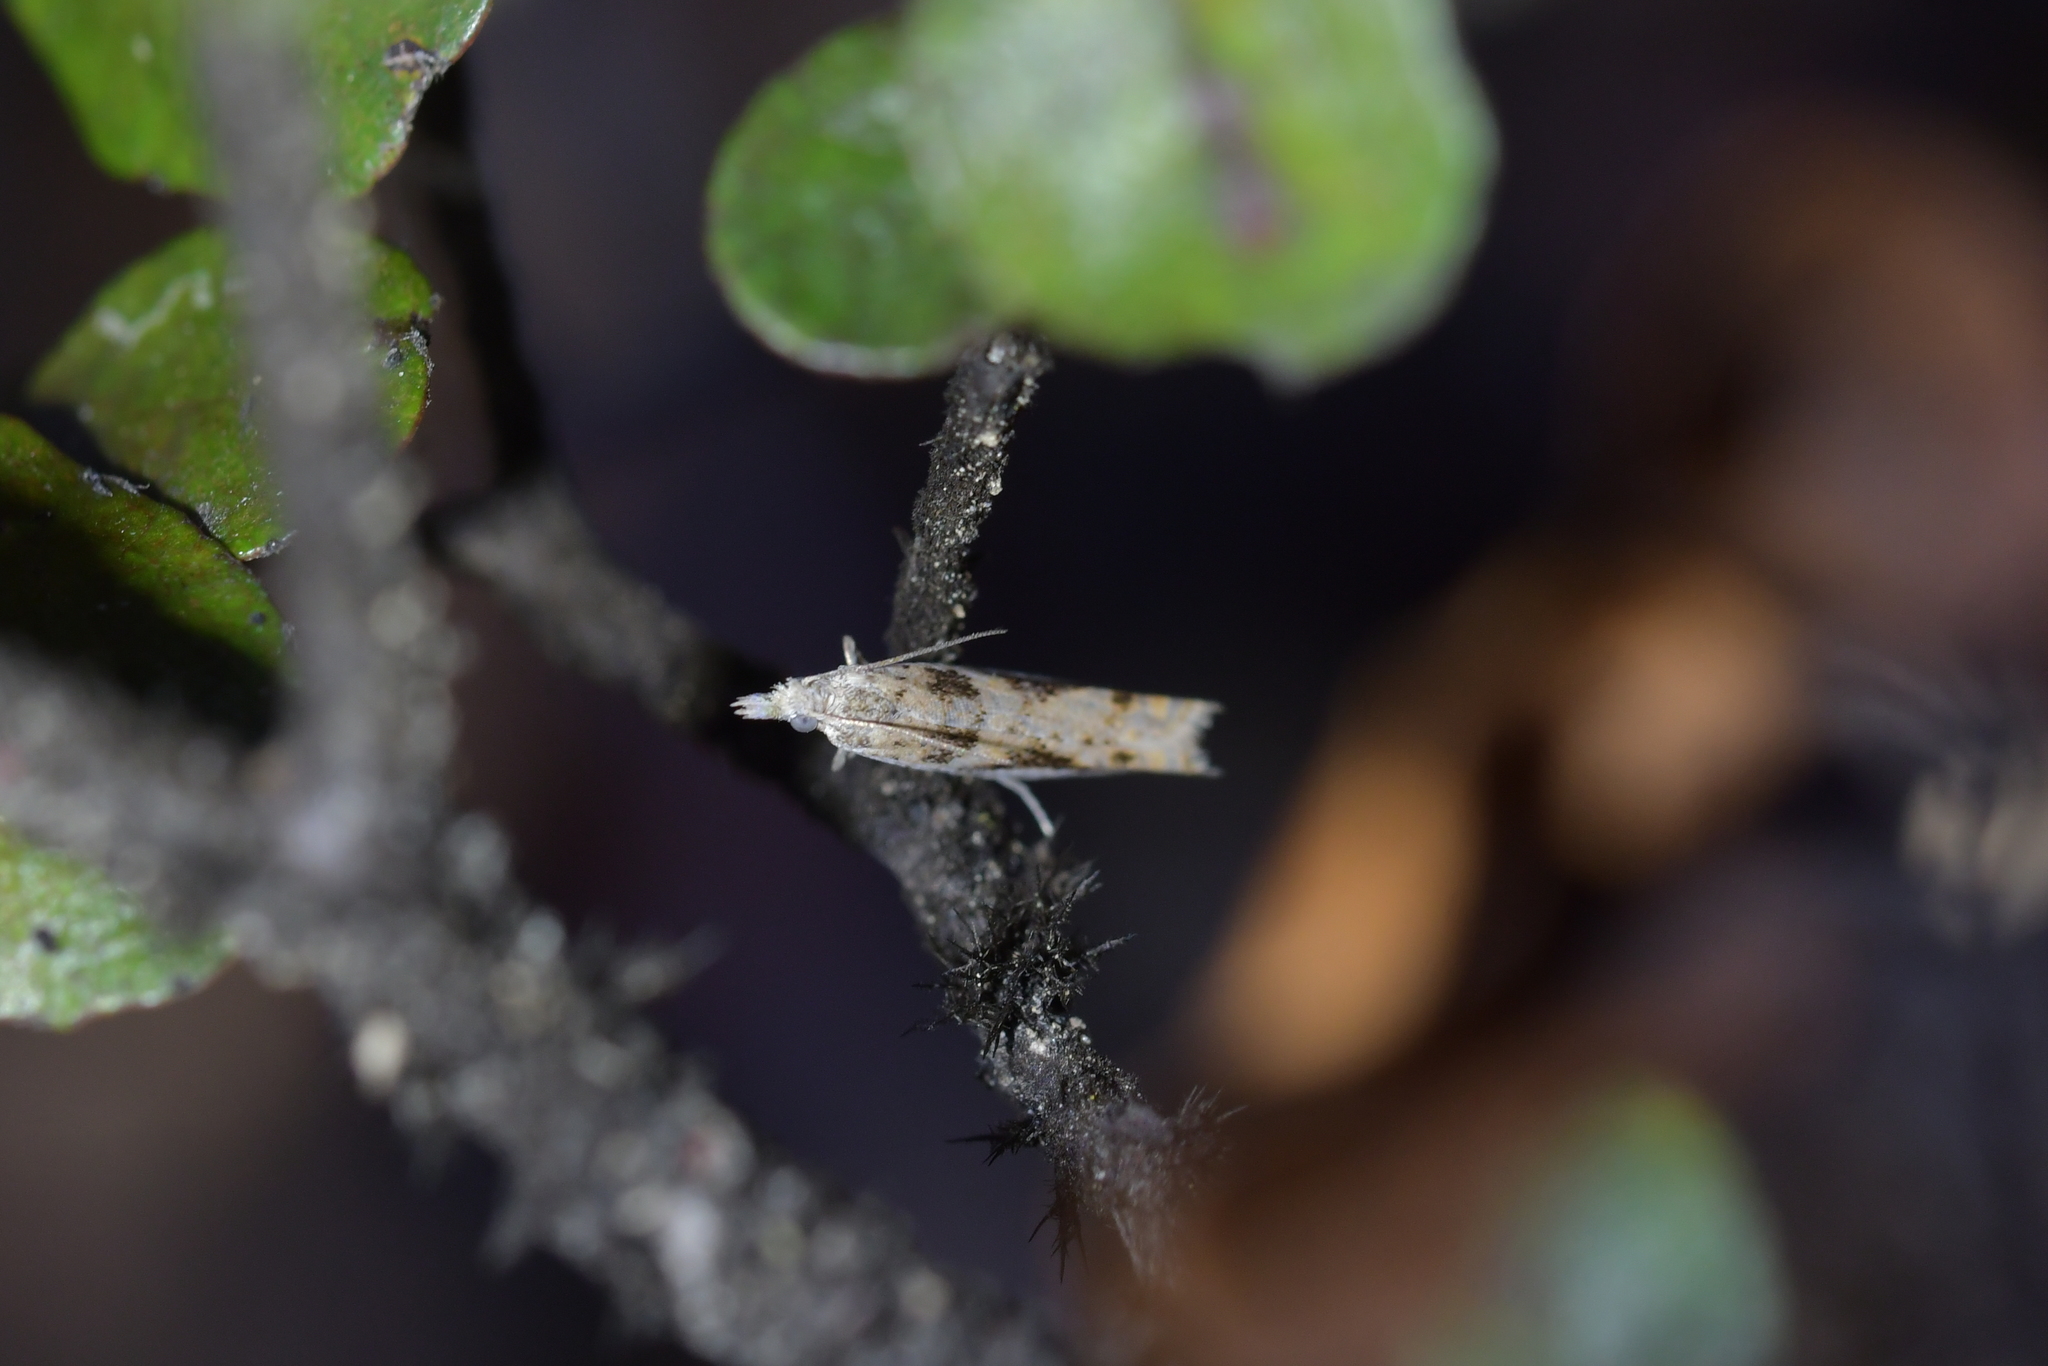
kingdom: Animalia
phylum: Arthropoda
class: Insecta
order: Lepidoptera
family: Tortricidae
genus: Holocola
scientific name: Holocola
